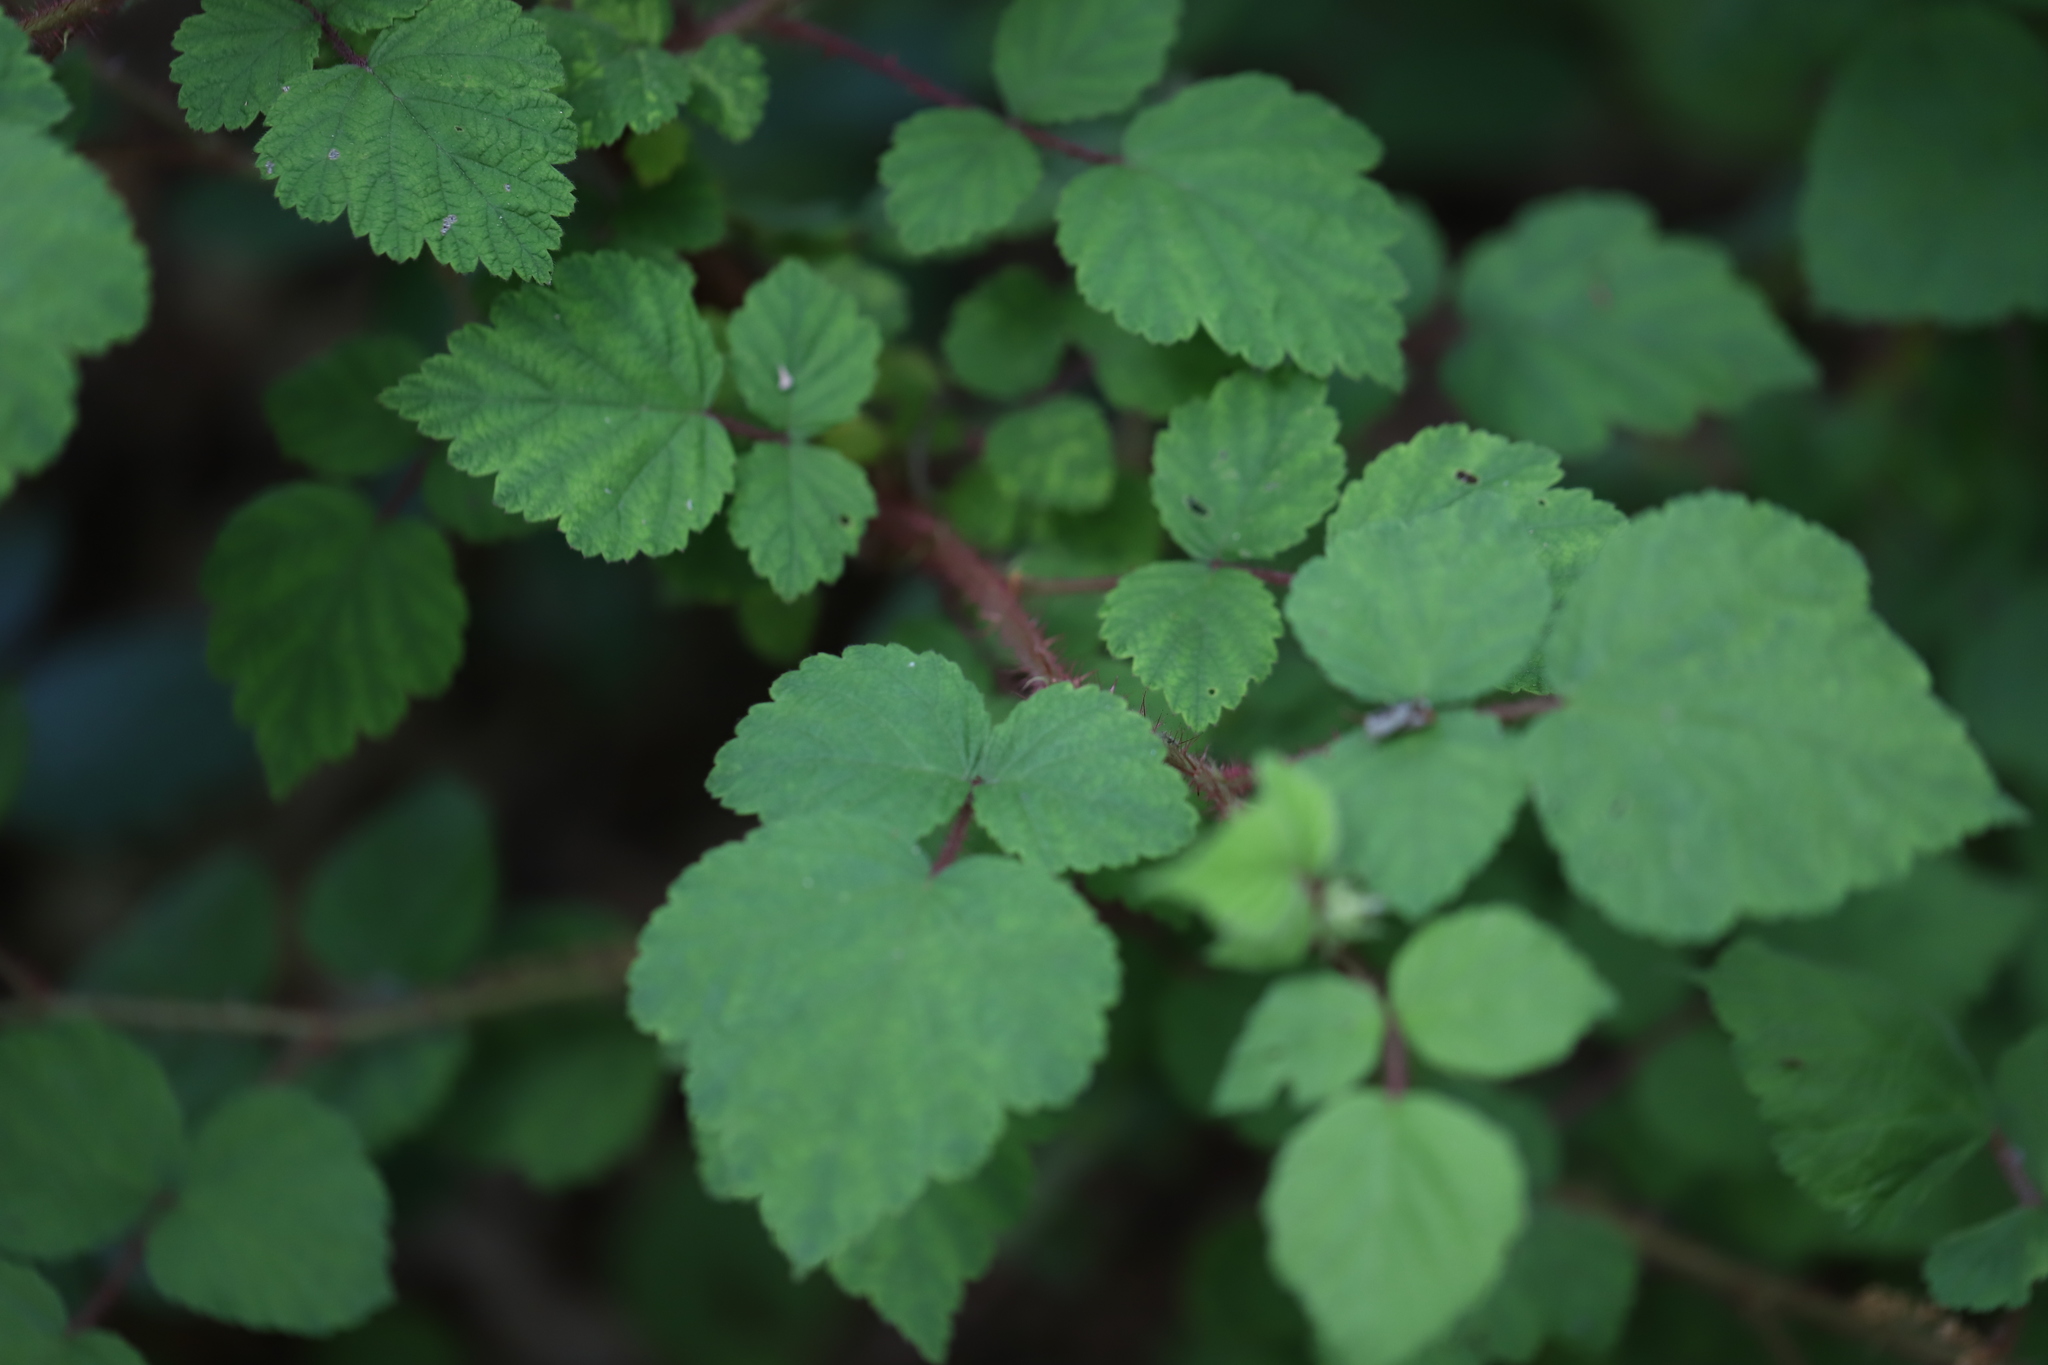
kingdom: Plantae
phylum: Tracheophyta
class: Magnoliopsida
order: Rosales
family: Rosaceae
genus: Rubus
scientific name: Rubus phoenicolasius
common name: Japanese wineberry
